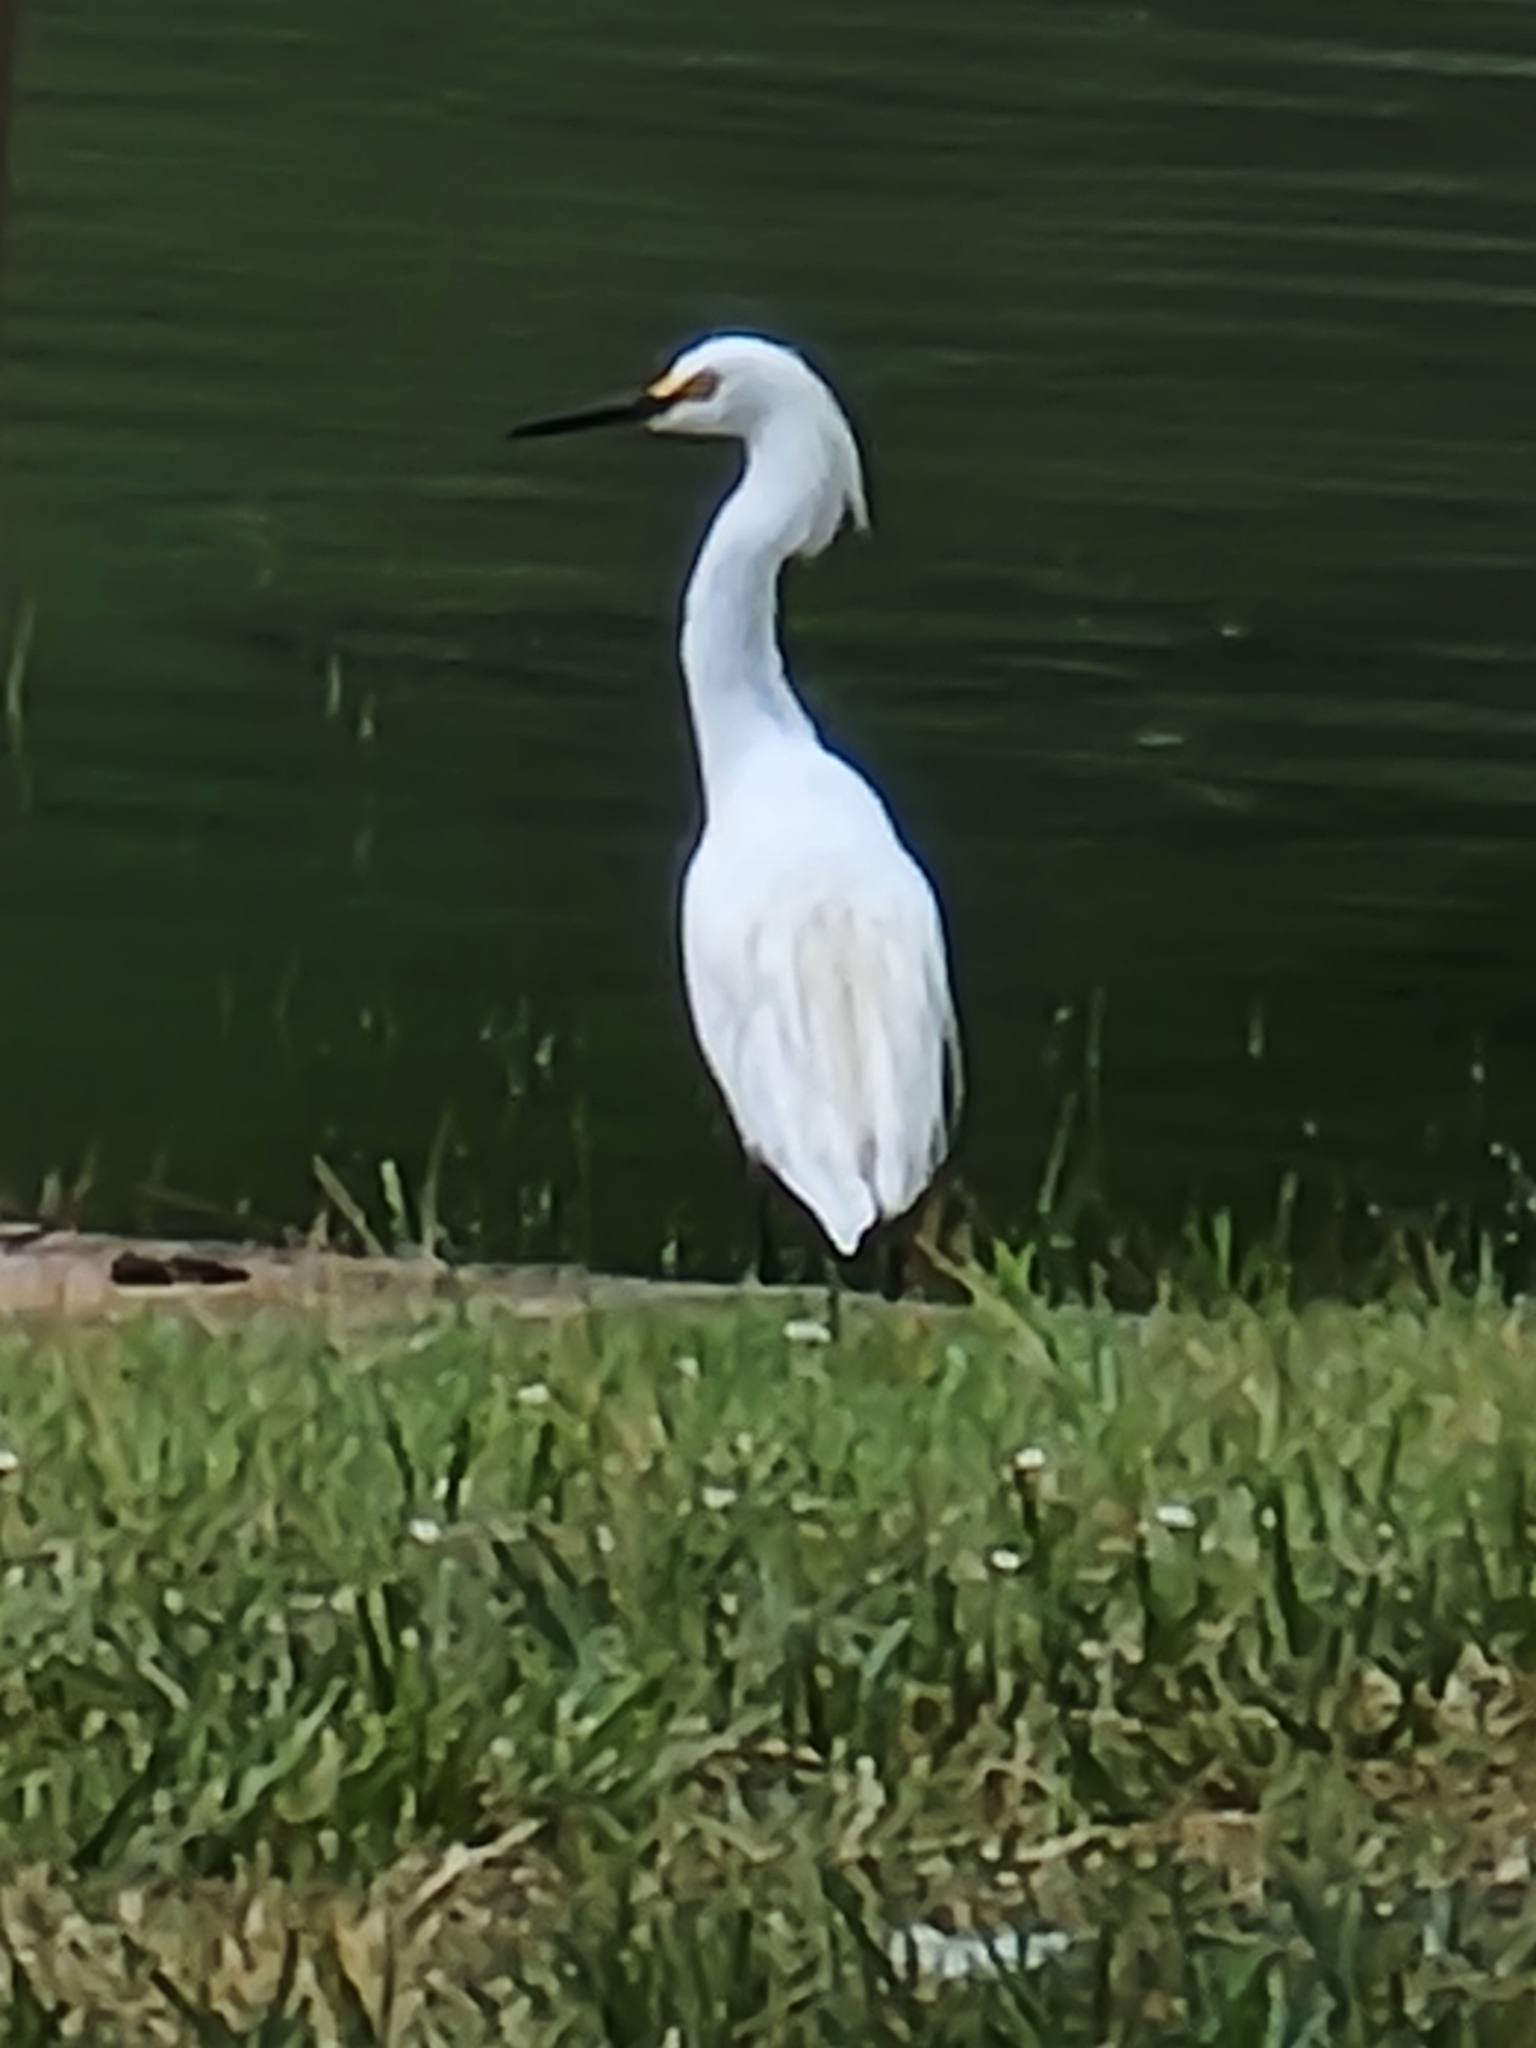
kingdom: Animalia
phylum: Chordata
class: Aves
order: Pelecaniformes
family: Ardeidae
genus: Egretta
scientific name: Egretta thula
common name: Snowy egret
